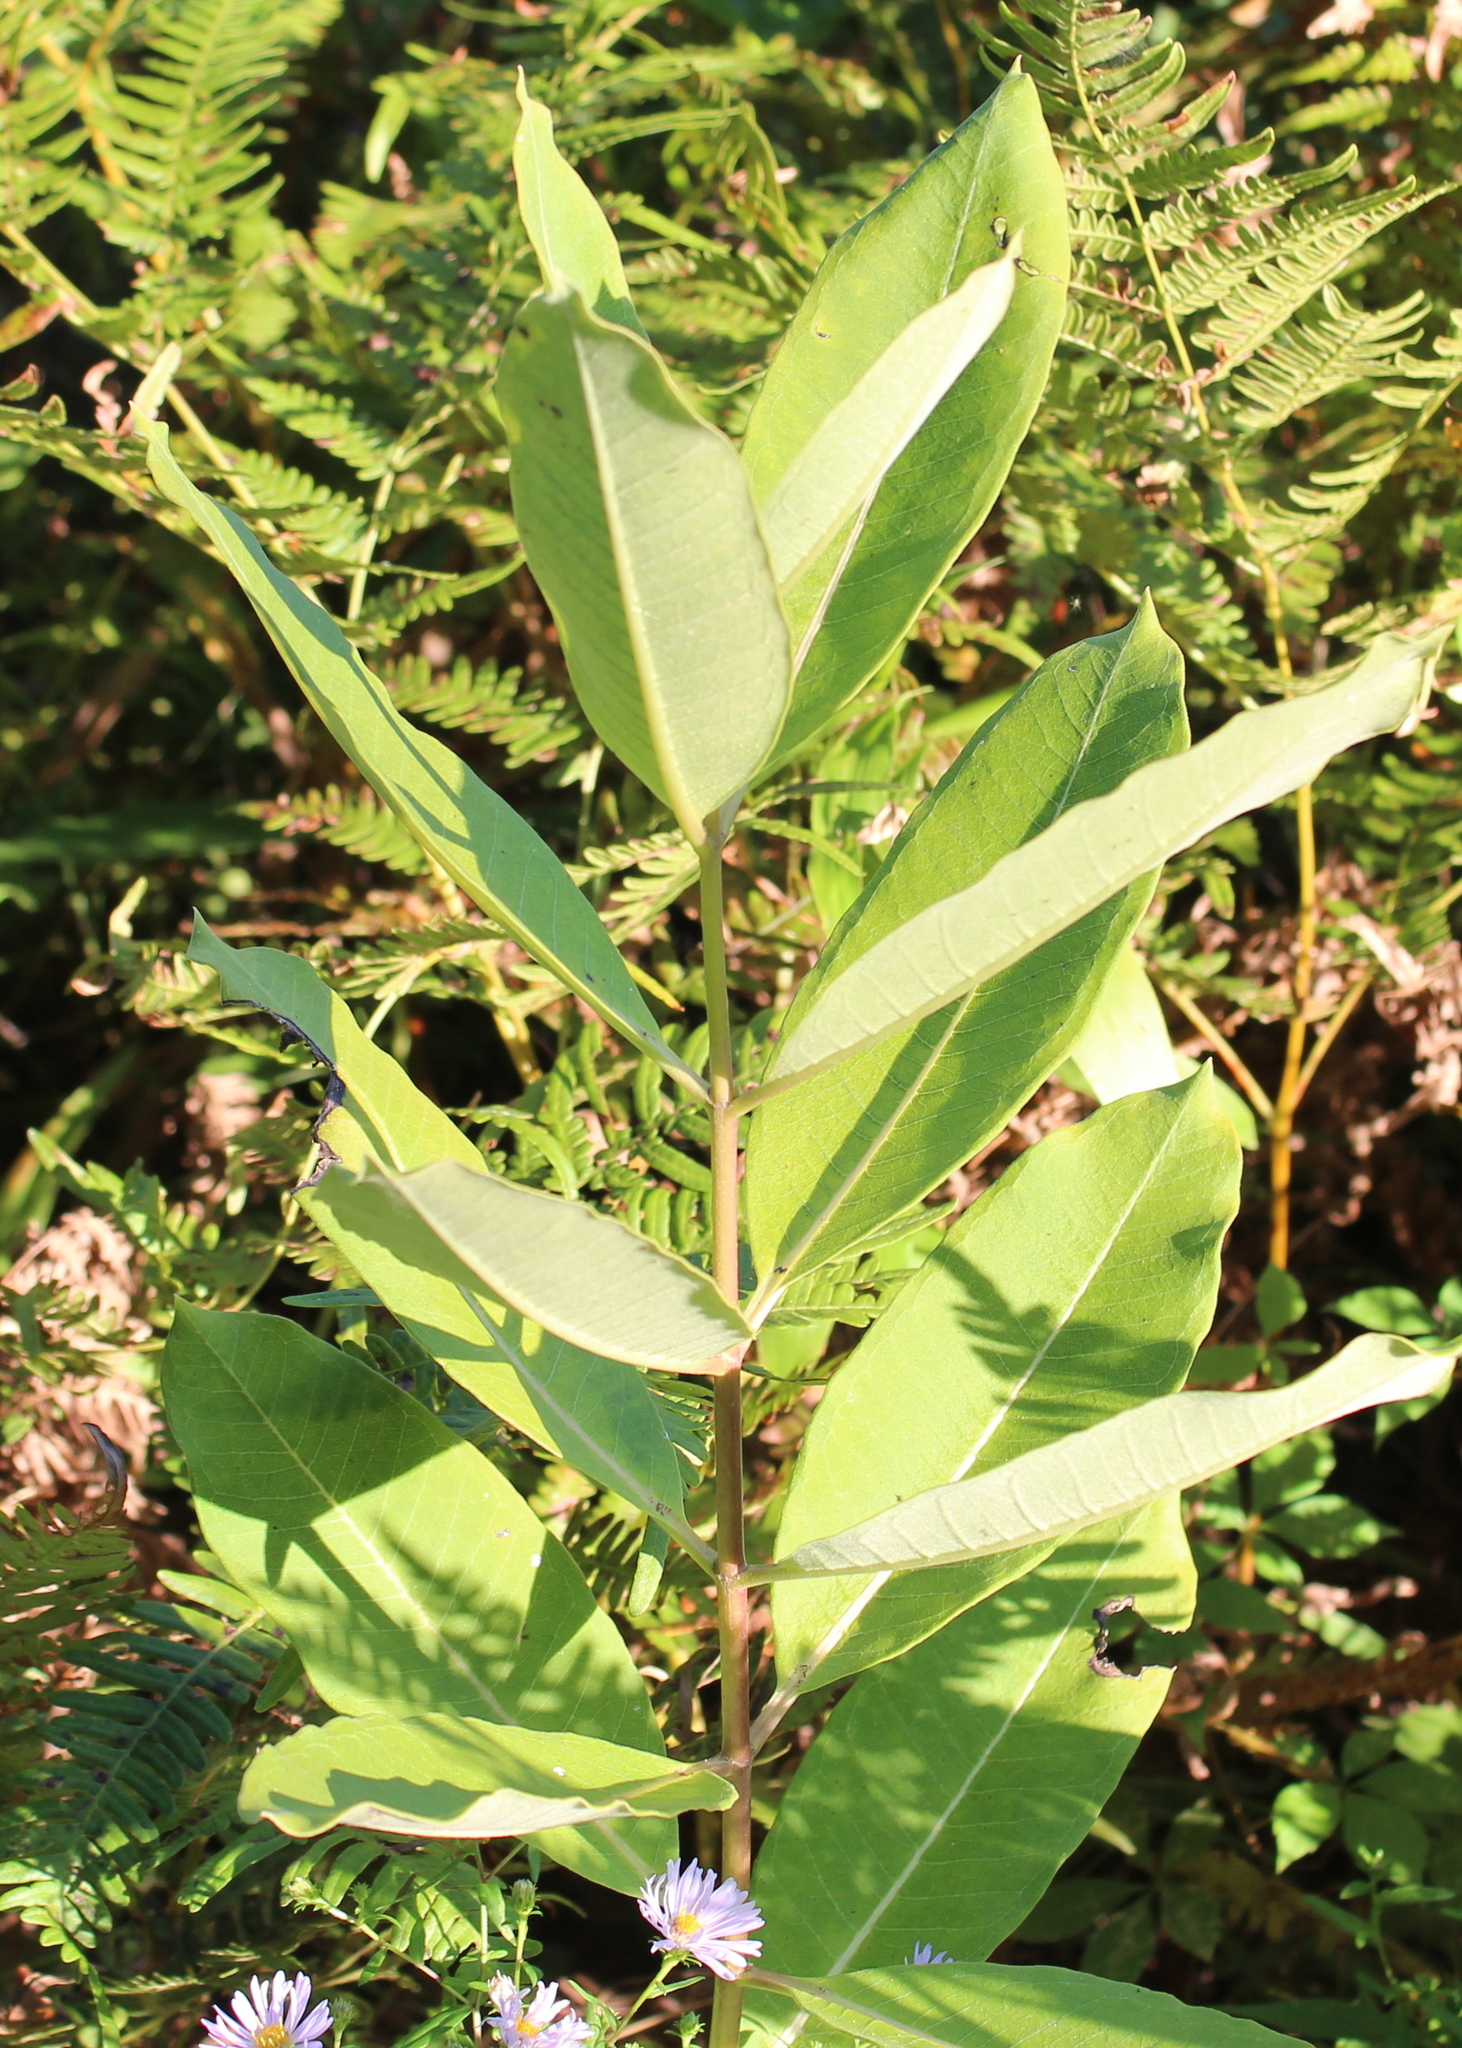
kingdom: Plantae
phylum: Tracheophyta
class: Magnoliopsida
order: Gentianales
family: Apocynaceae
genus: Asclepias
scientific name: Asclepias syriaca
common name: Common milkweed
